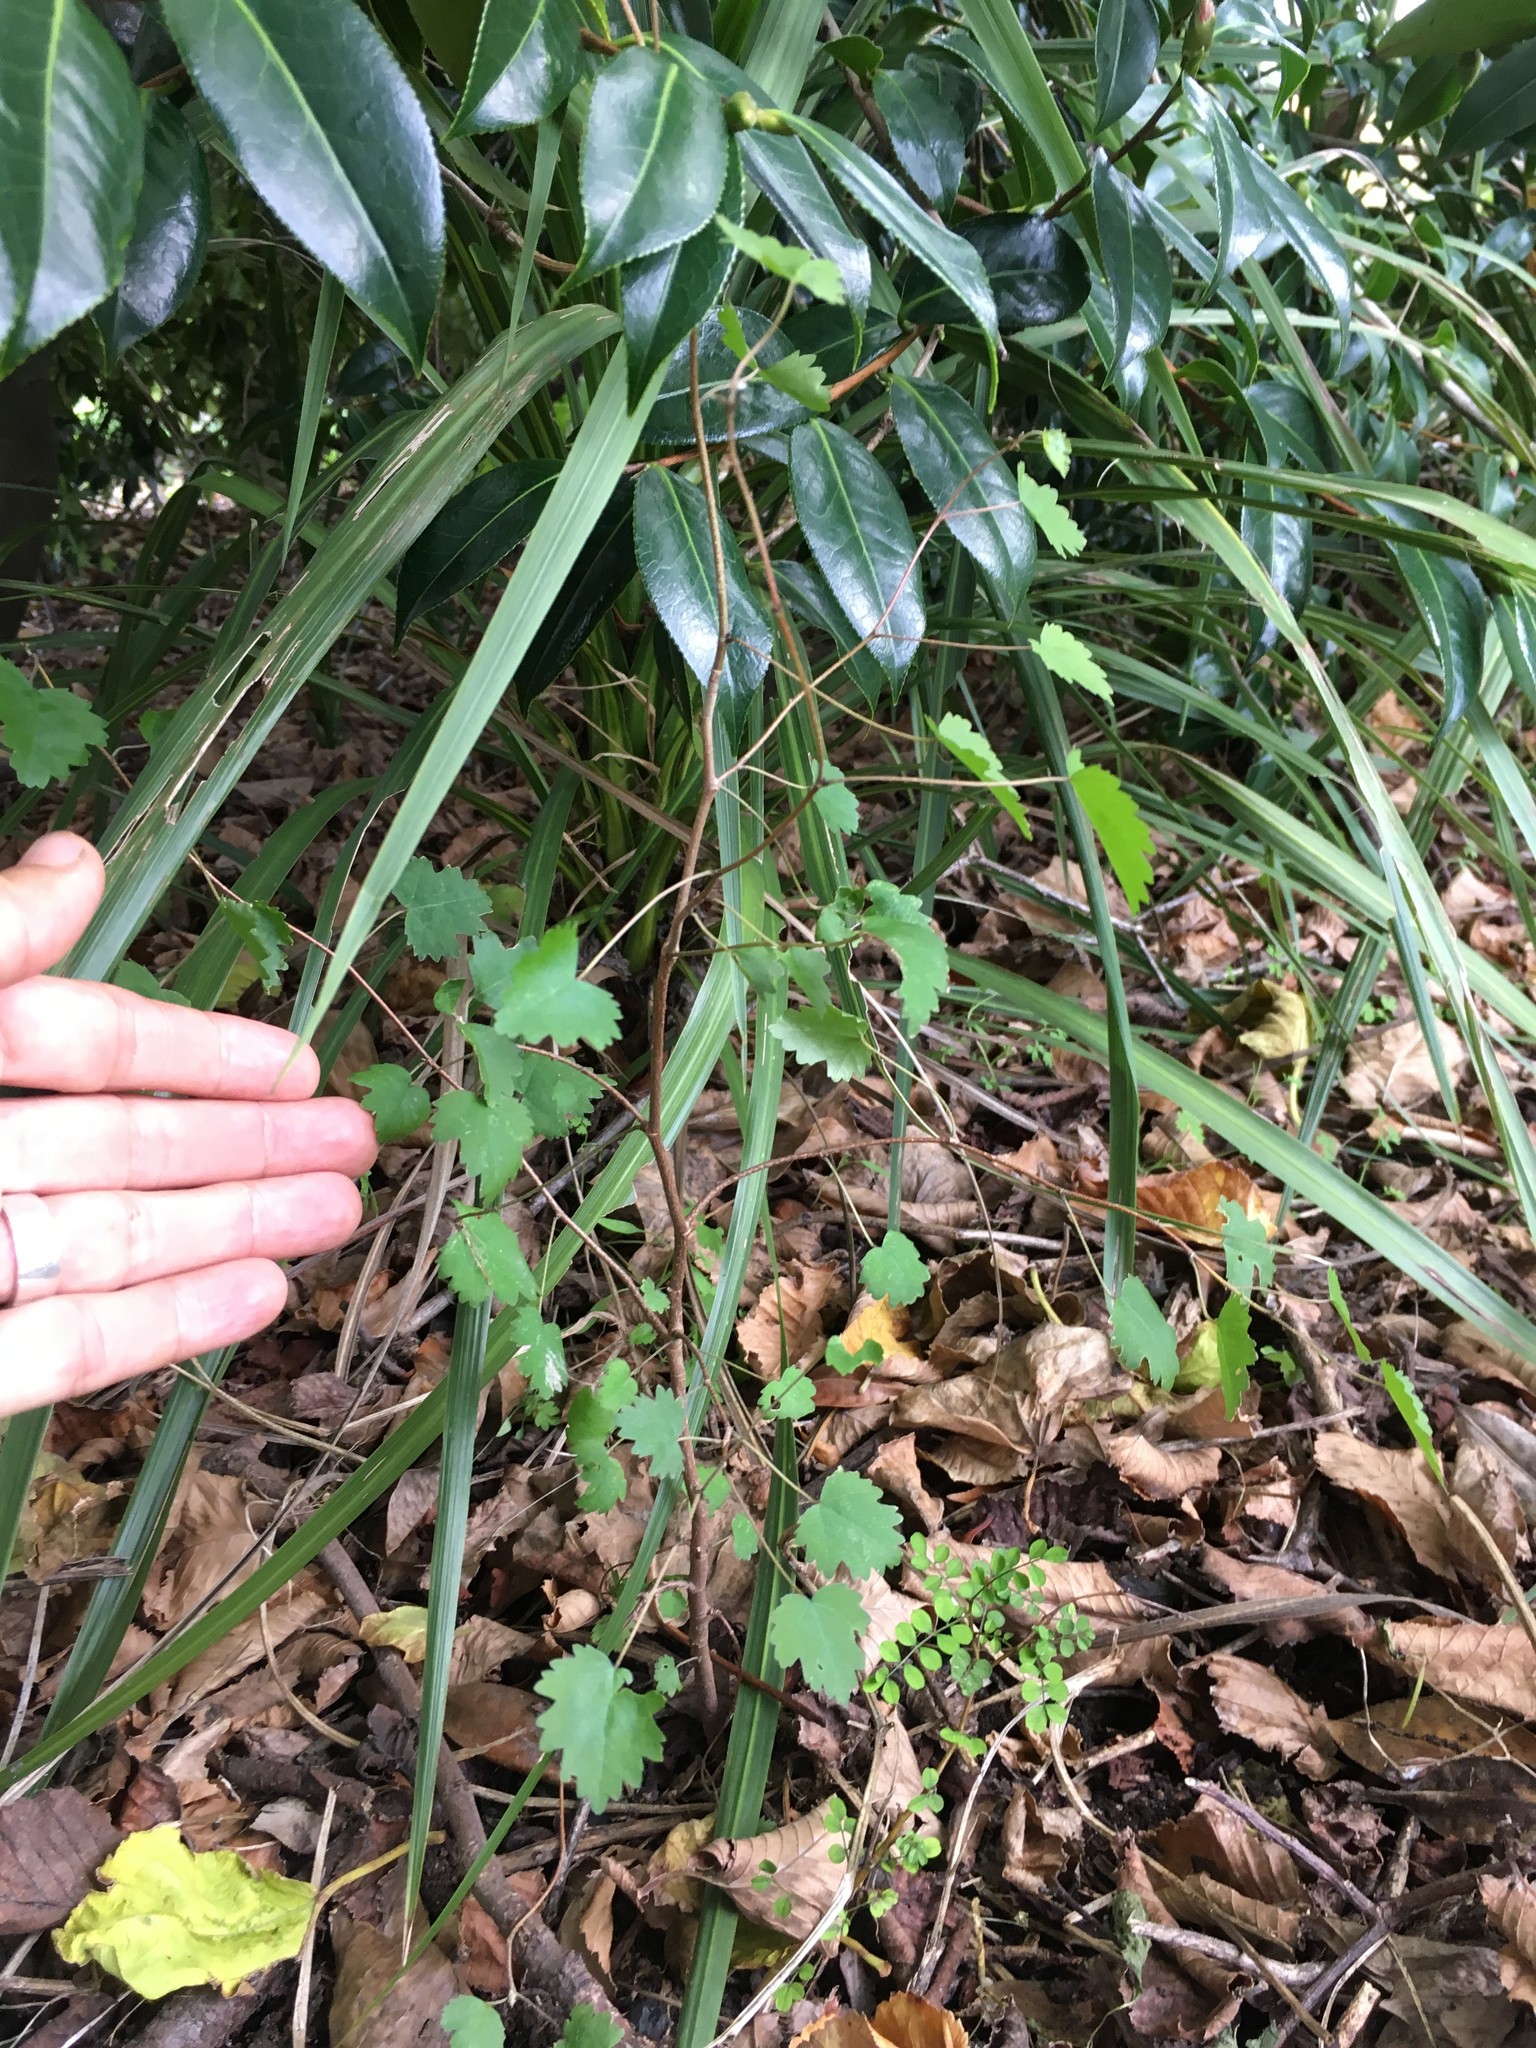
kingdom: Plantae
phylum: Tracheophyta
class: Magnoliopsida
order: Malvales
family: Malvaceae
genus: Plagianthus
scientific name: Plagianthus regius
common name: Manatu
